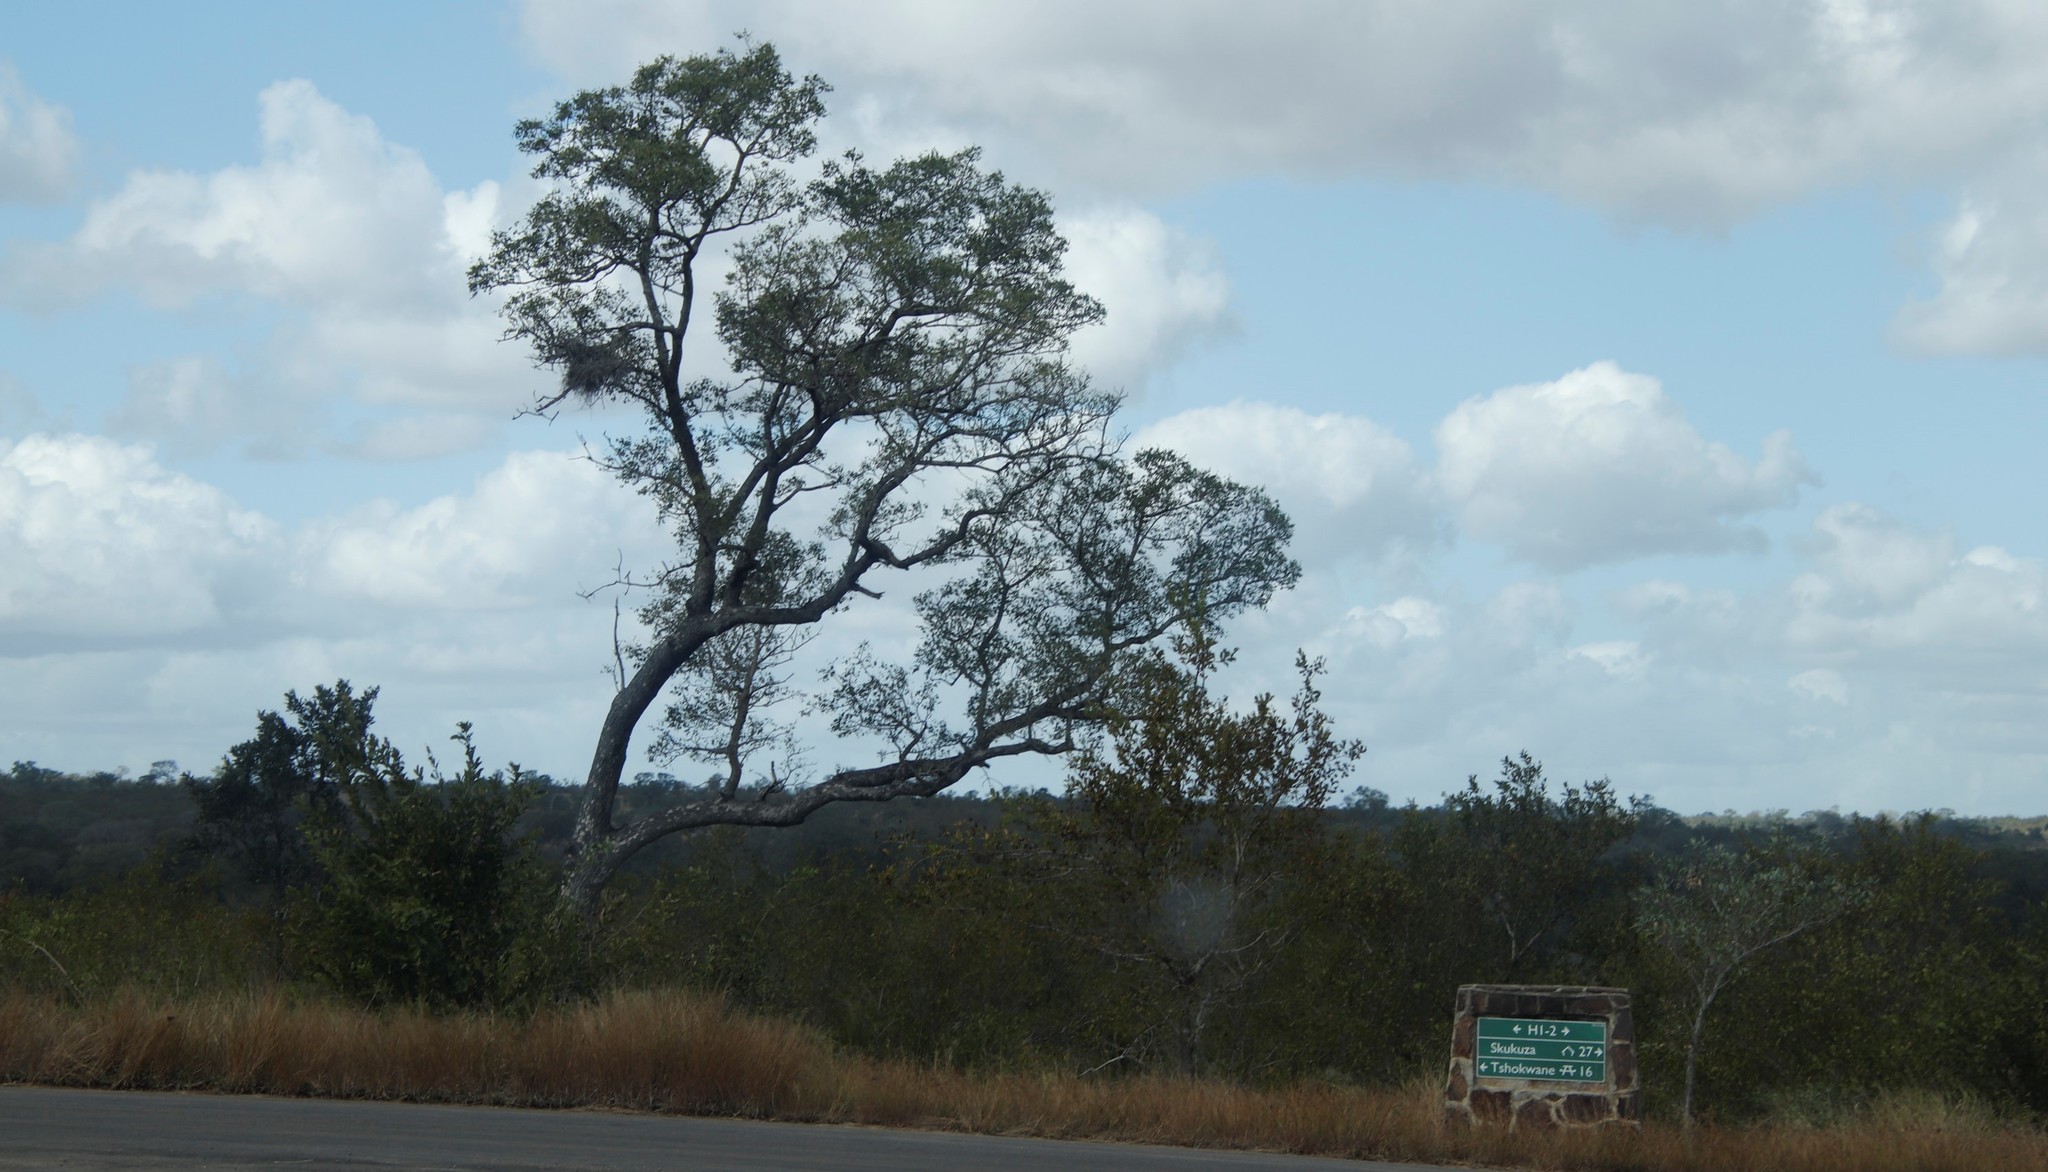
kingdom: Plantae
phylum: Tracheophyta
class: Magnoliopsida
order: Sapindales
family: Anacardiaceae
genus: Sclerocarya
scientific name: Sclerocarya birrea
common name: Marula
